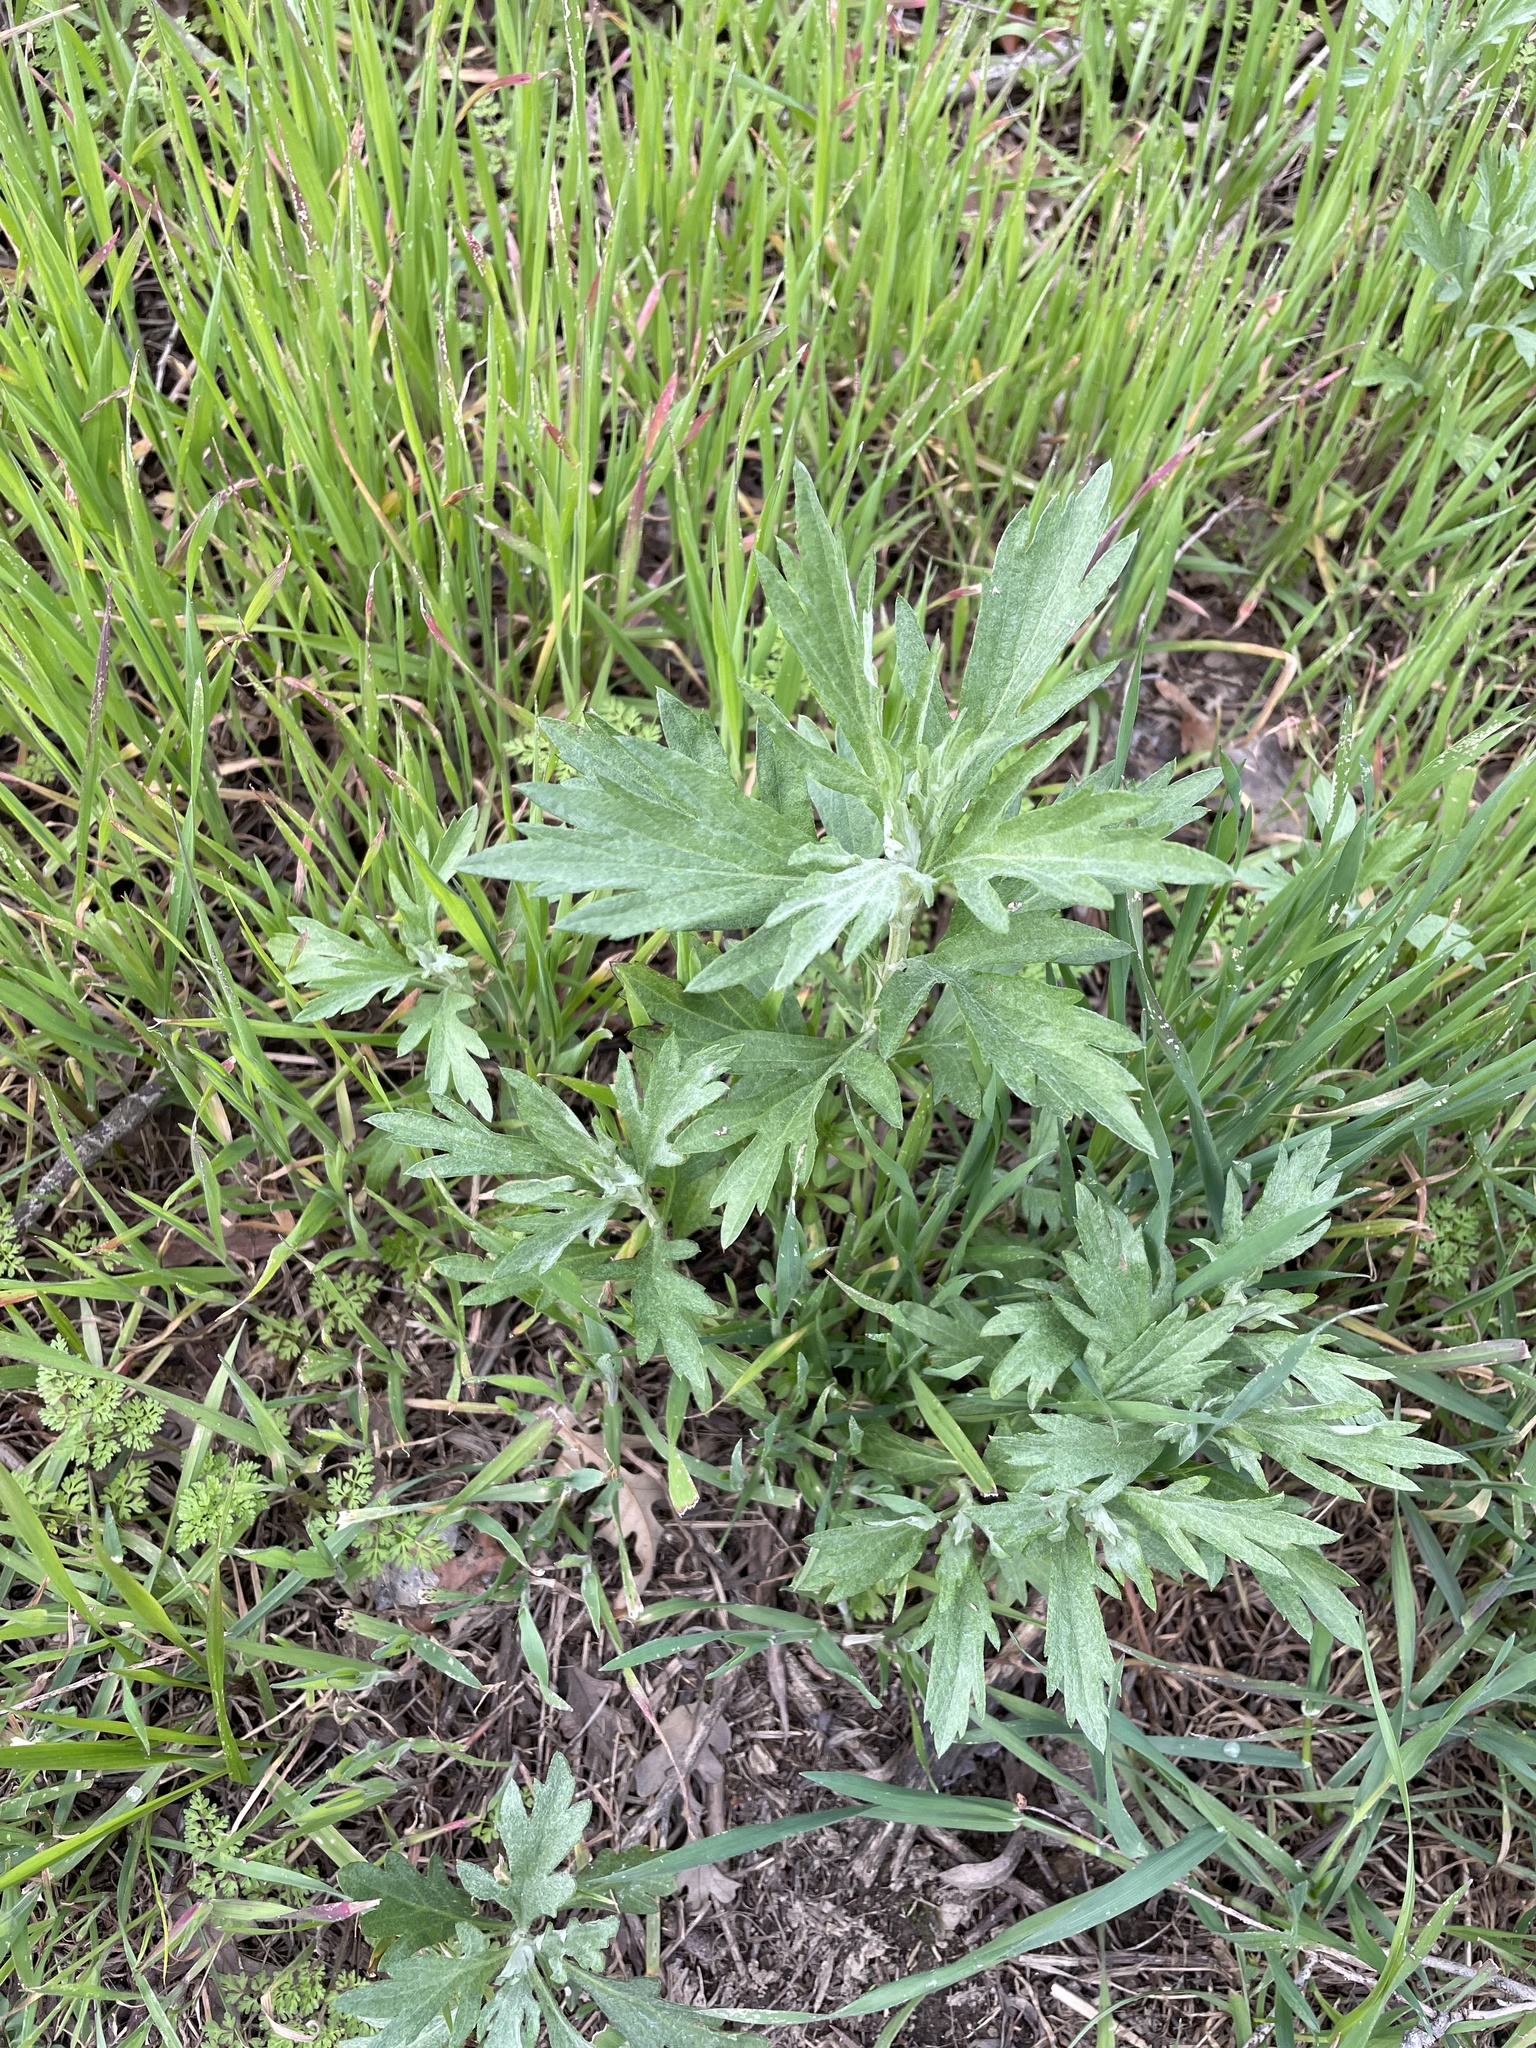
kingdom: Plantae
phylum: Tracheophyta
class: Magnoliopsida
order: Asterales
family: Asteraceae
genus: Artemisia
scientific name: Artemisia douglasiana
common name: Northwest mugwort
